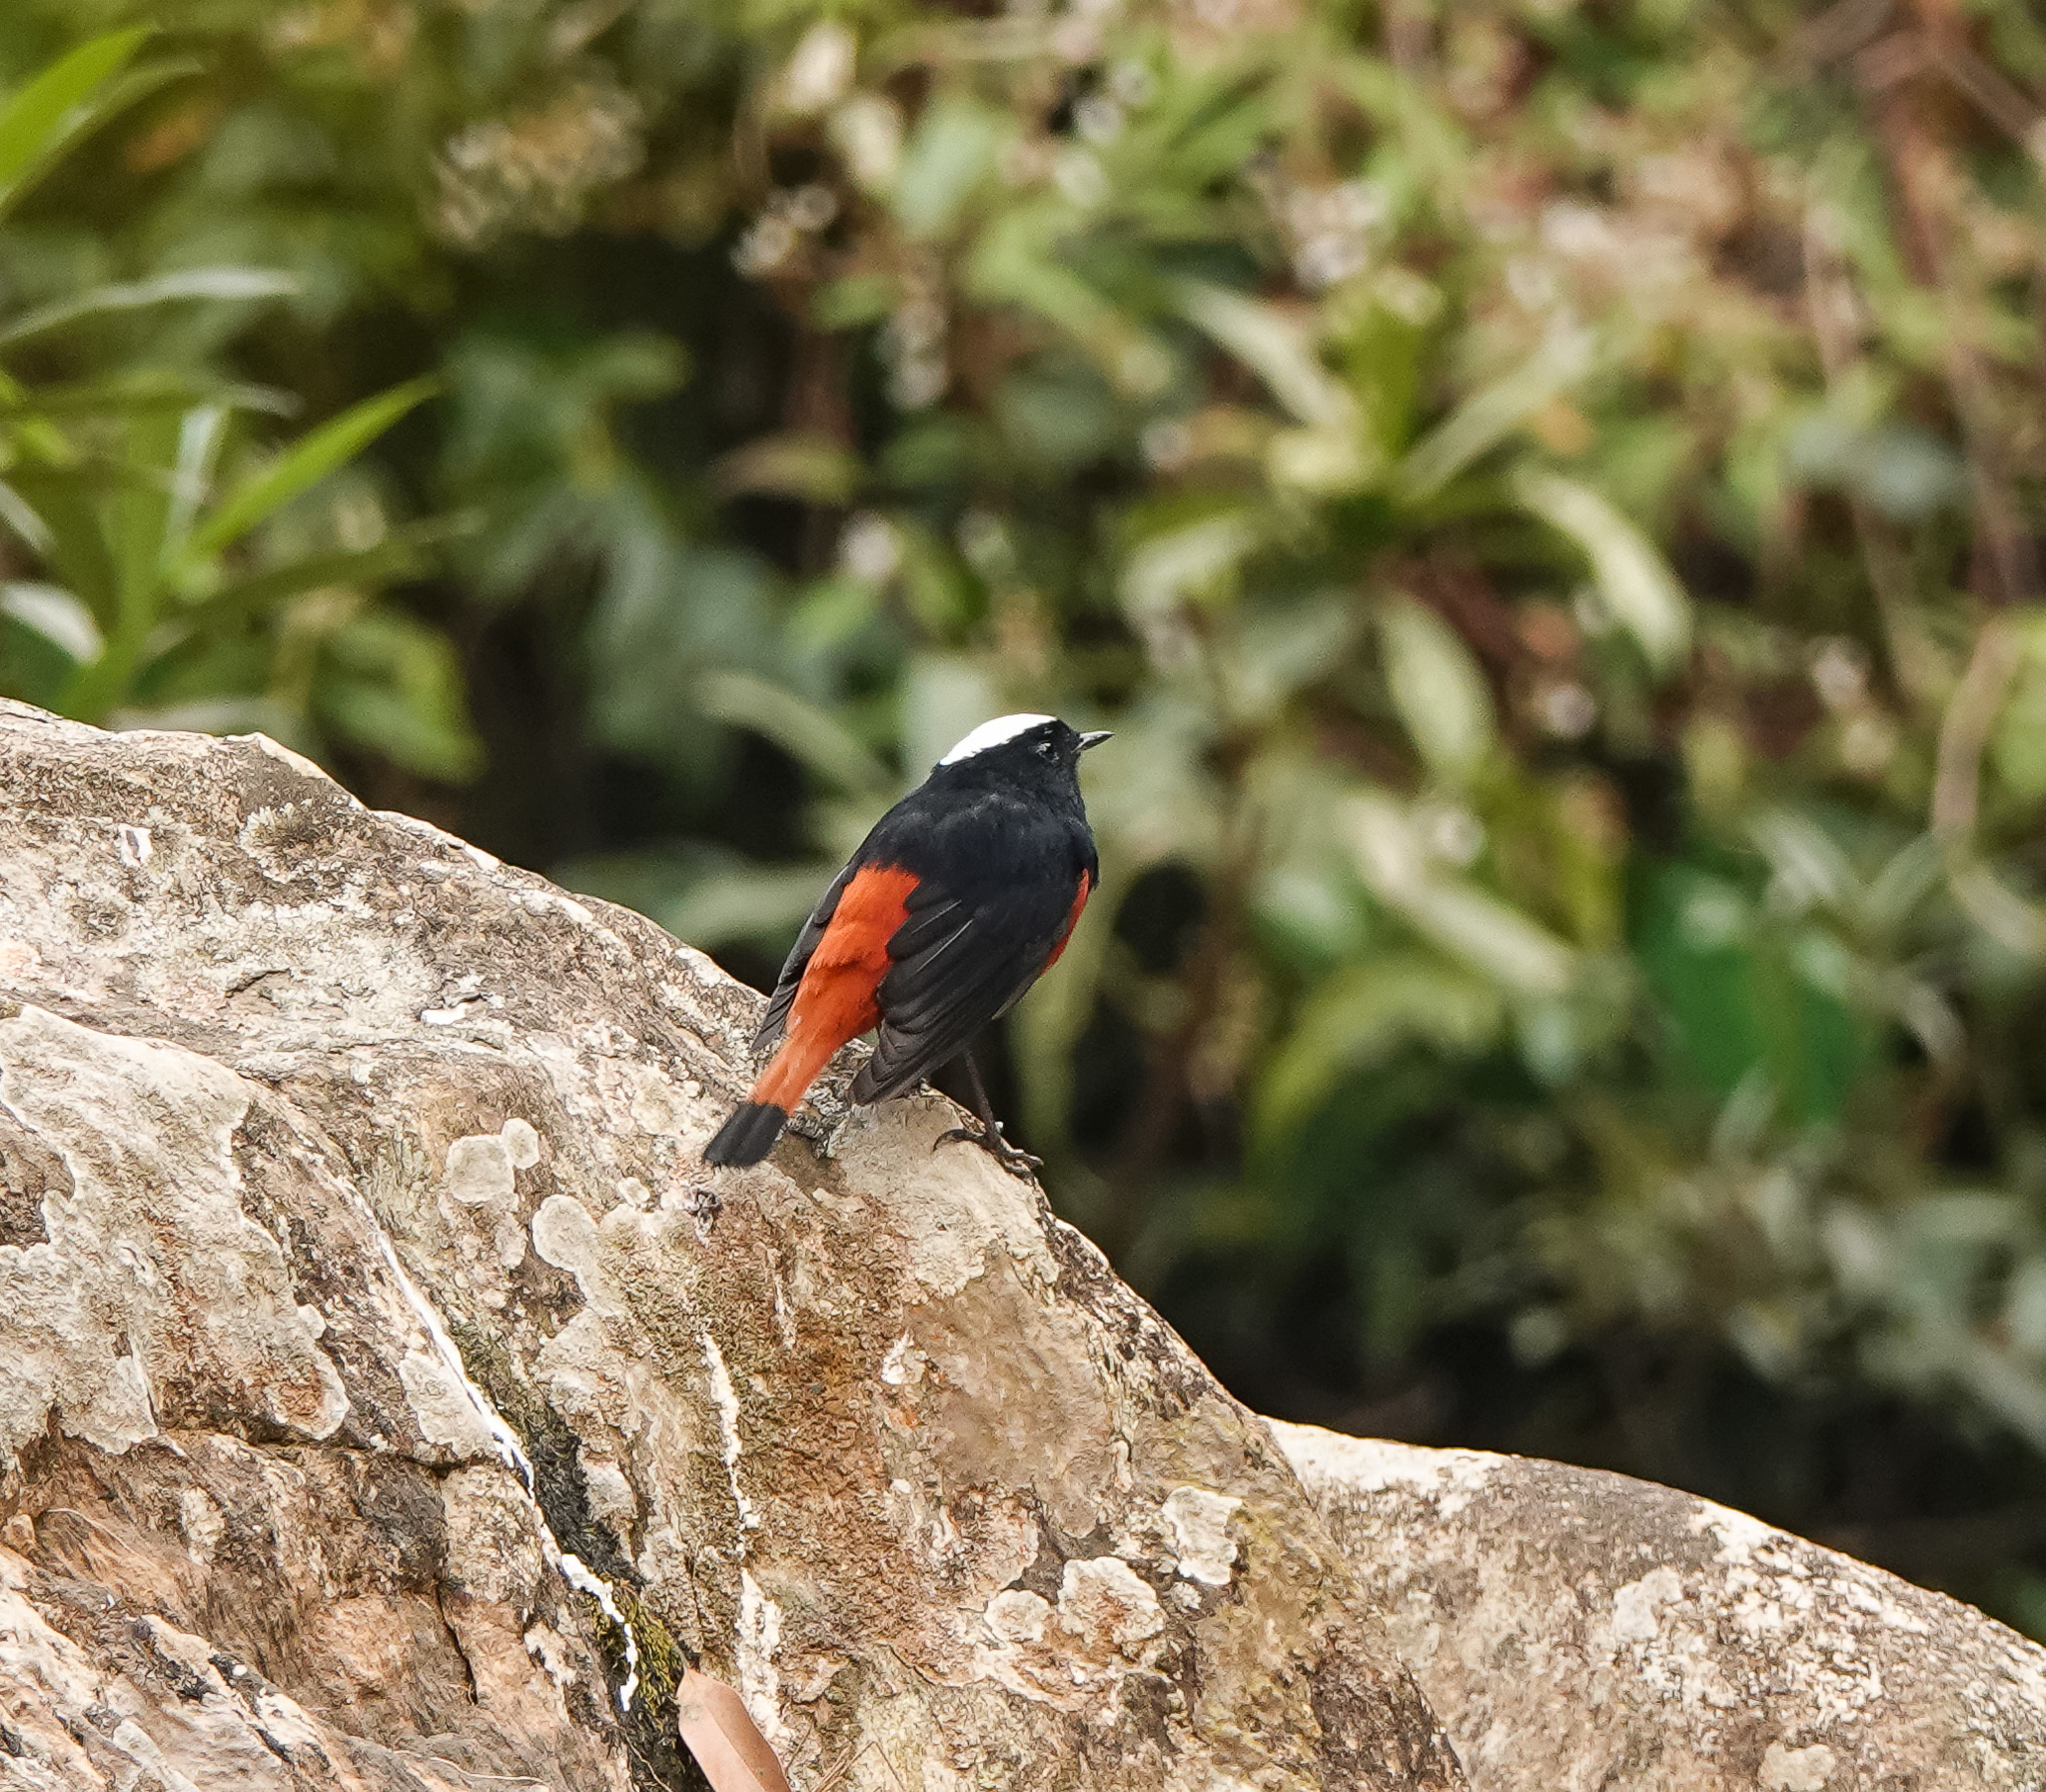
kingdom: Animalia
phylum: Chordata
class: Aves
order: Passeriformes
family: Muscicapidae
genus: Chaimarrornis
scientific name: Chaimarrornis leucocephalus
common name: White-capped redstart
